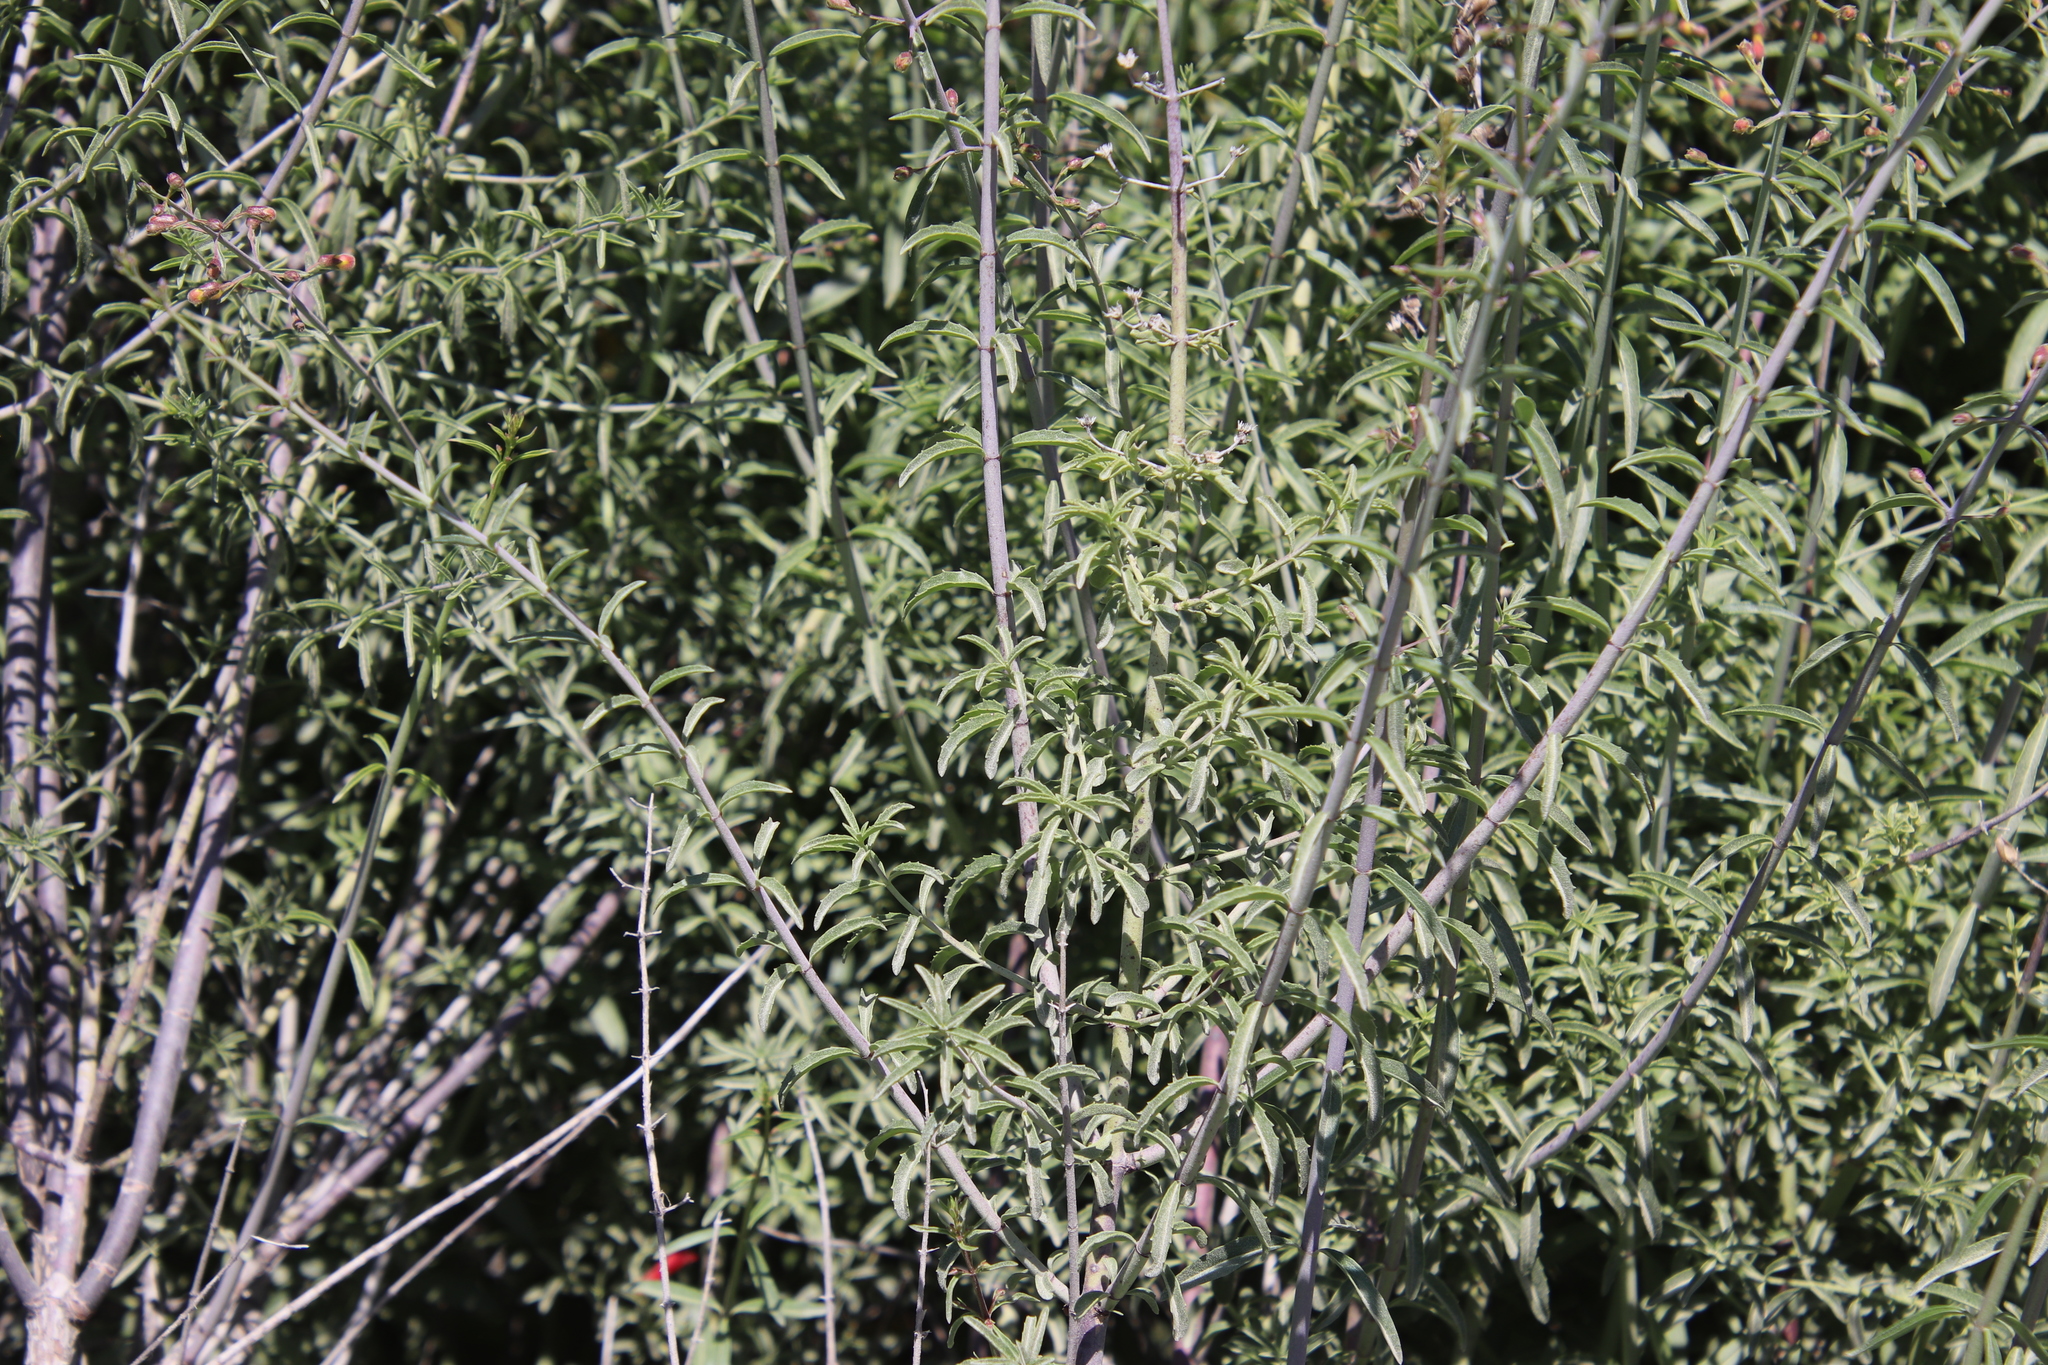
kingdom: Plantae
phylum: Tracheophyta
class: Magnoliopsida
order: Lamiales
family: Plantaginaceae
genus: Keckiella
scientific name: Keckiella ternata
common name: Scarlet keckiella
